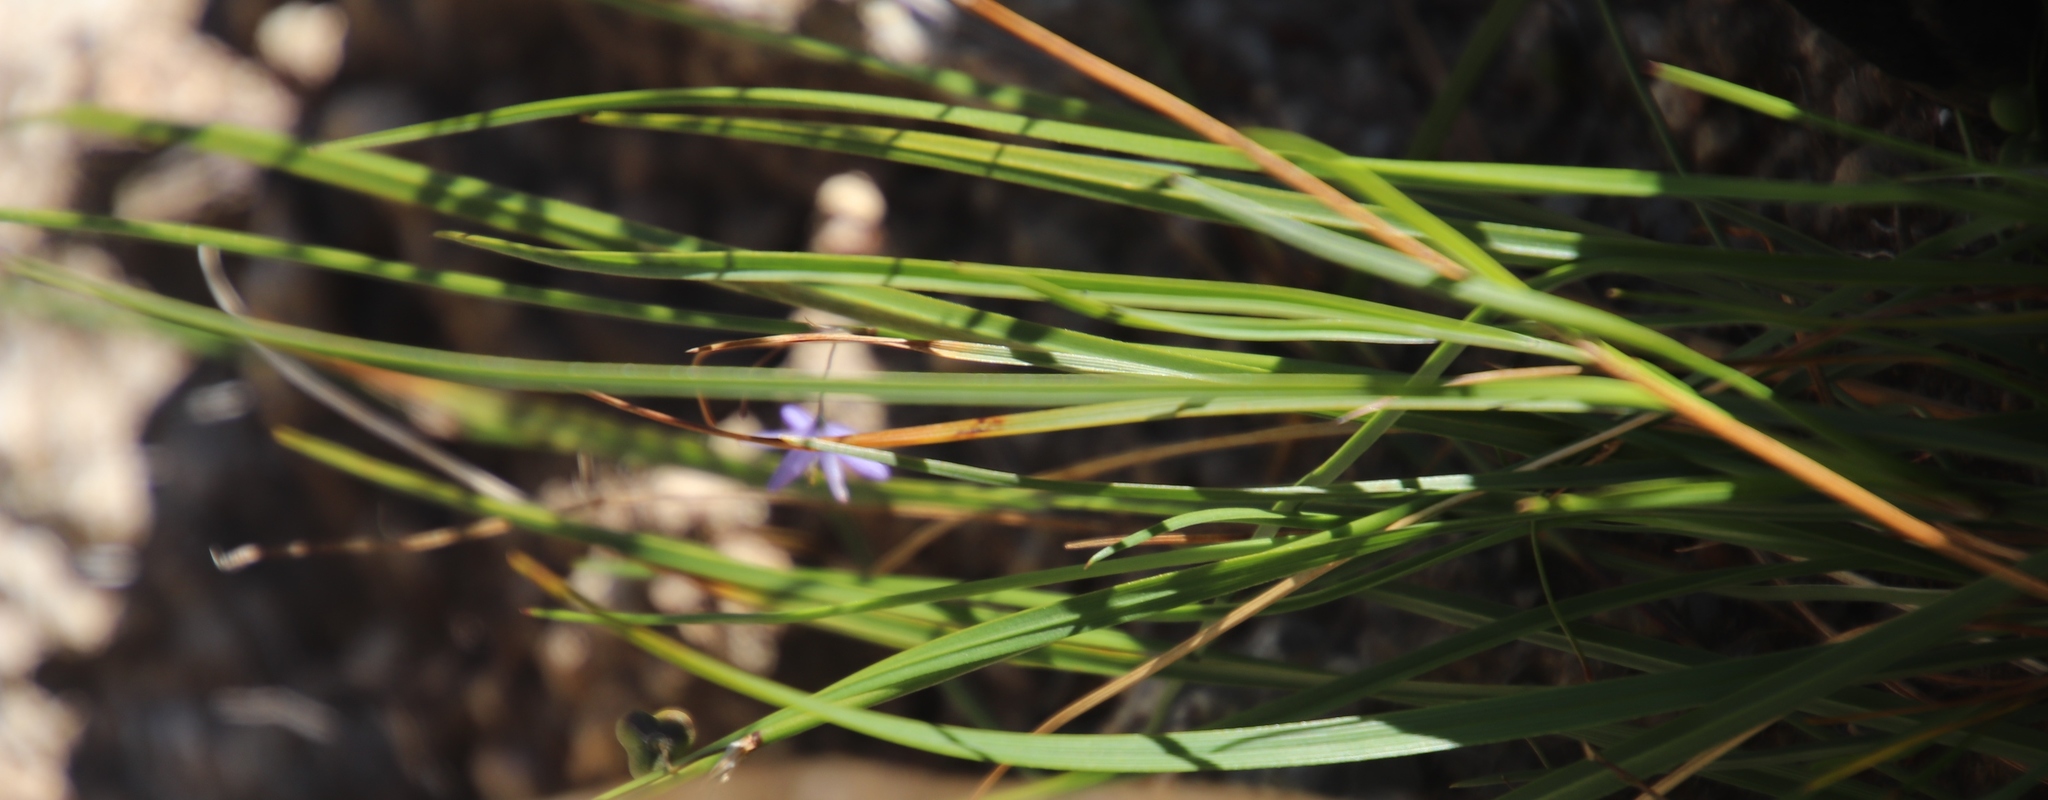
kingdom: Plantae
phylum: Tracheophyta
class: Liliopsida
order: Asparagales
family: Asphodelaceae
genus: Caesia
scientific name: Caesia contorta
